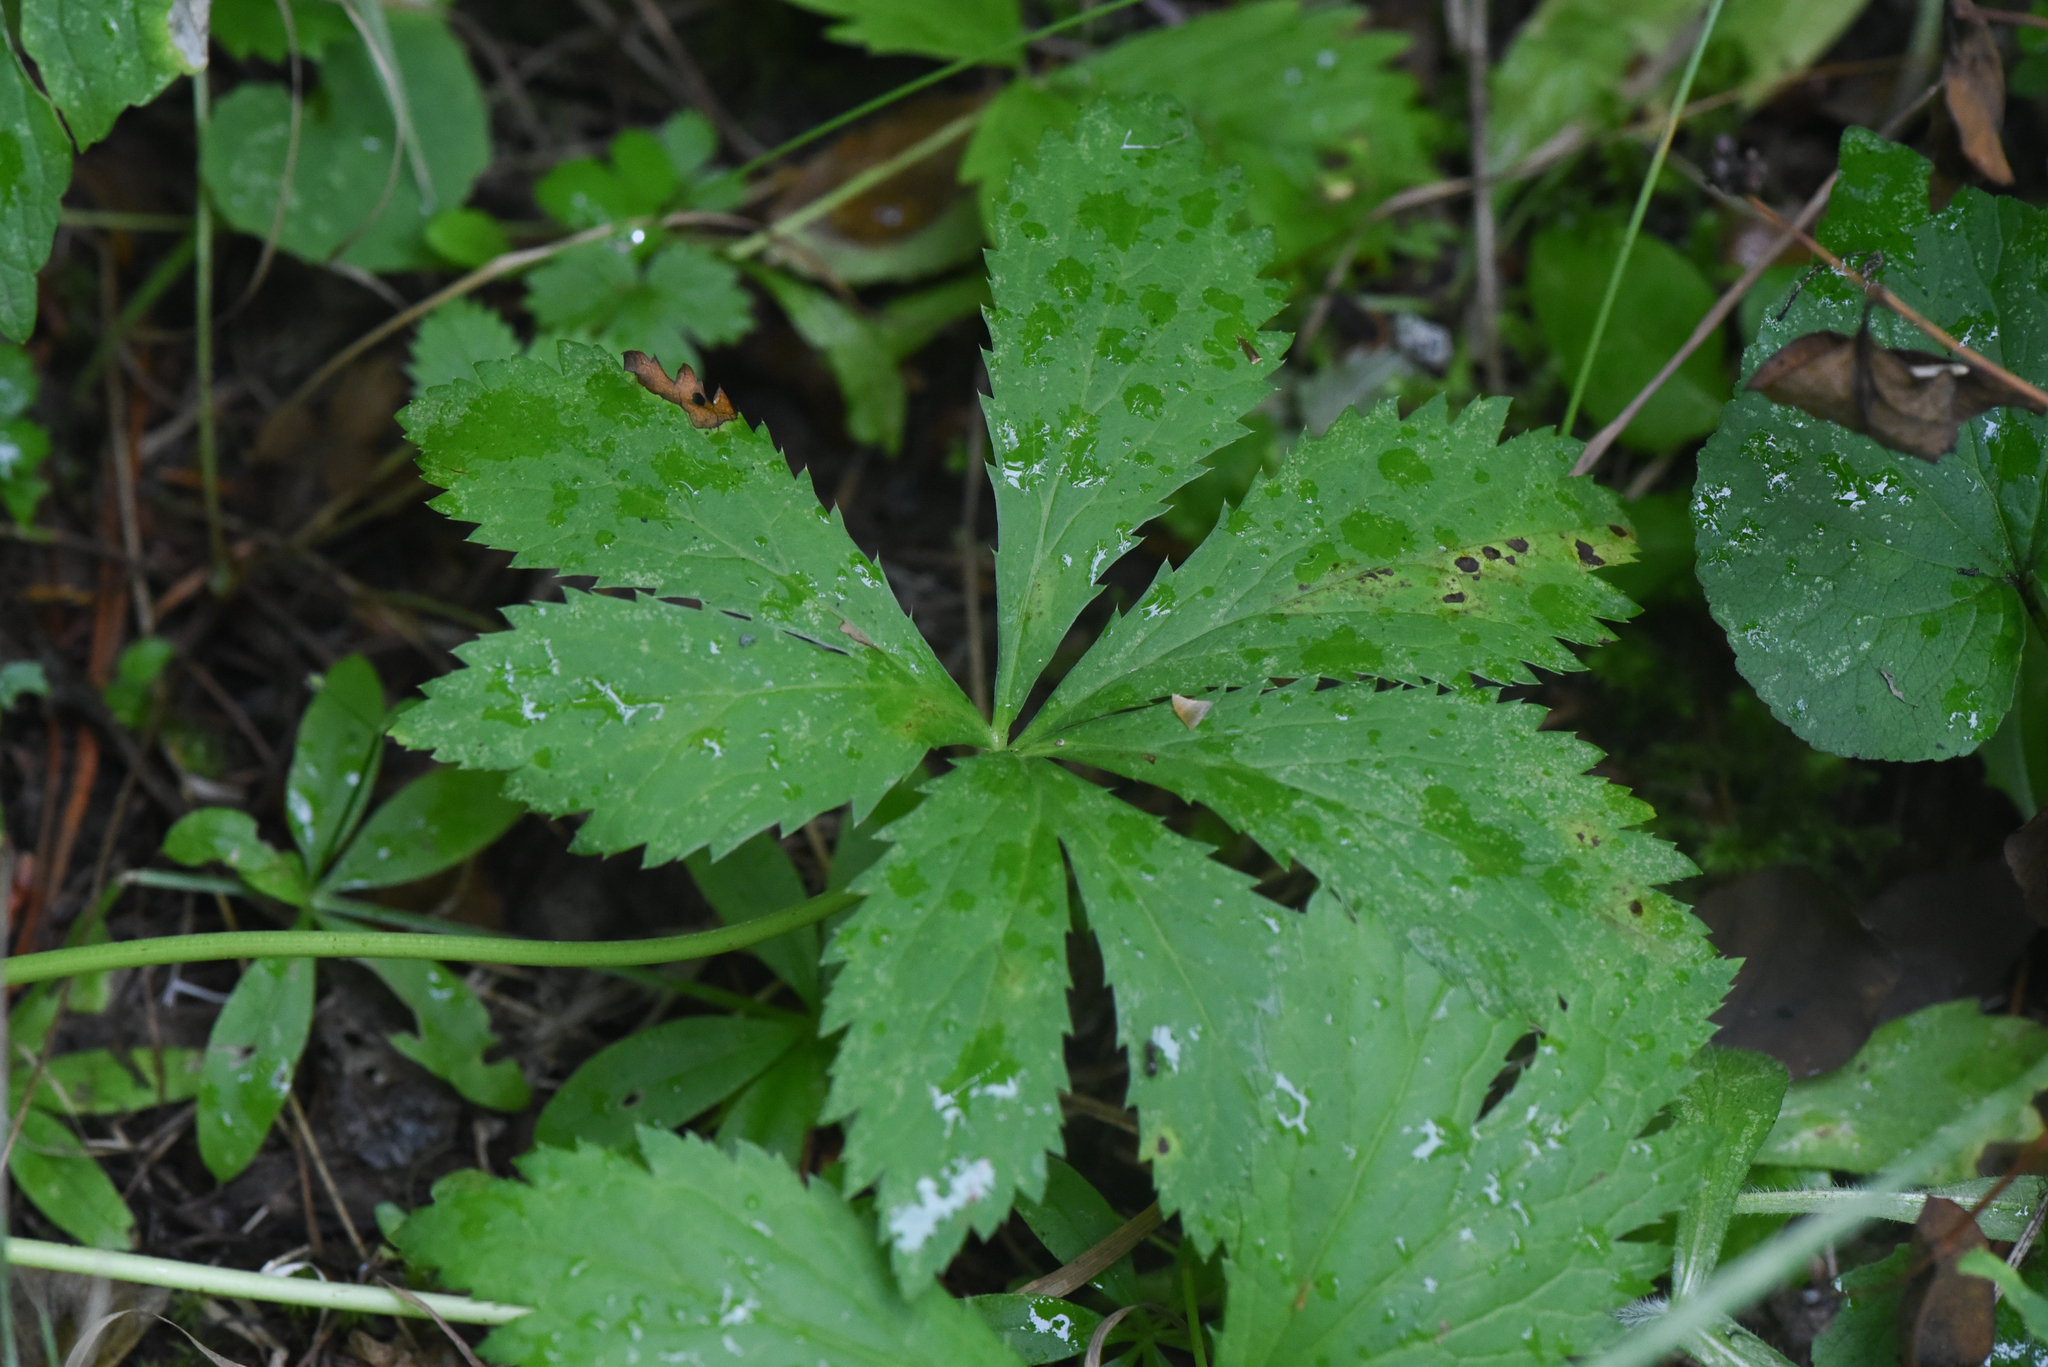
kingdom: Plantae
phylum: Tracheophyta
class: Magnoliopsida
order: Apiales
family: Apiaceae
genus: Sanicula
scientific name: Sanicula marilandica
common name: Black snakeroot
